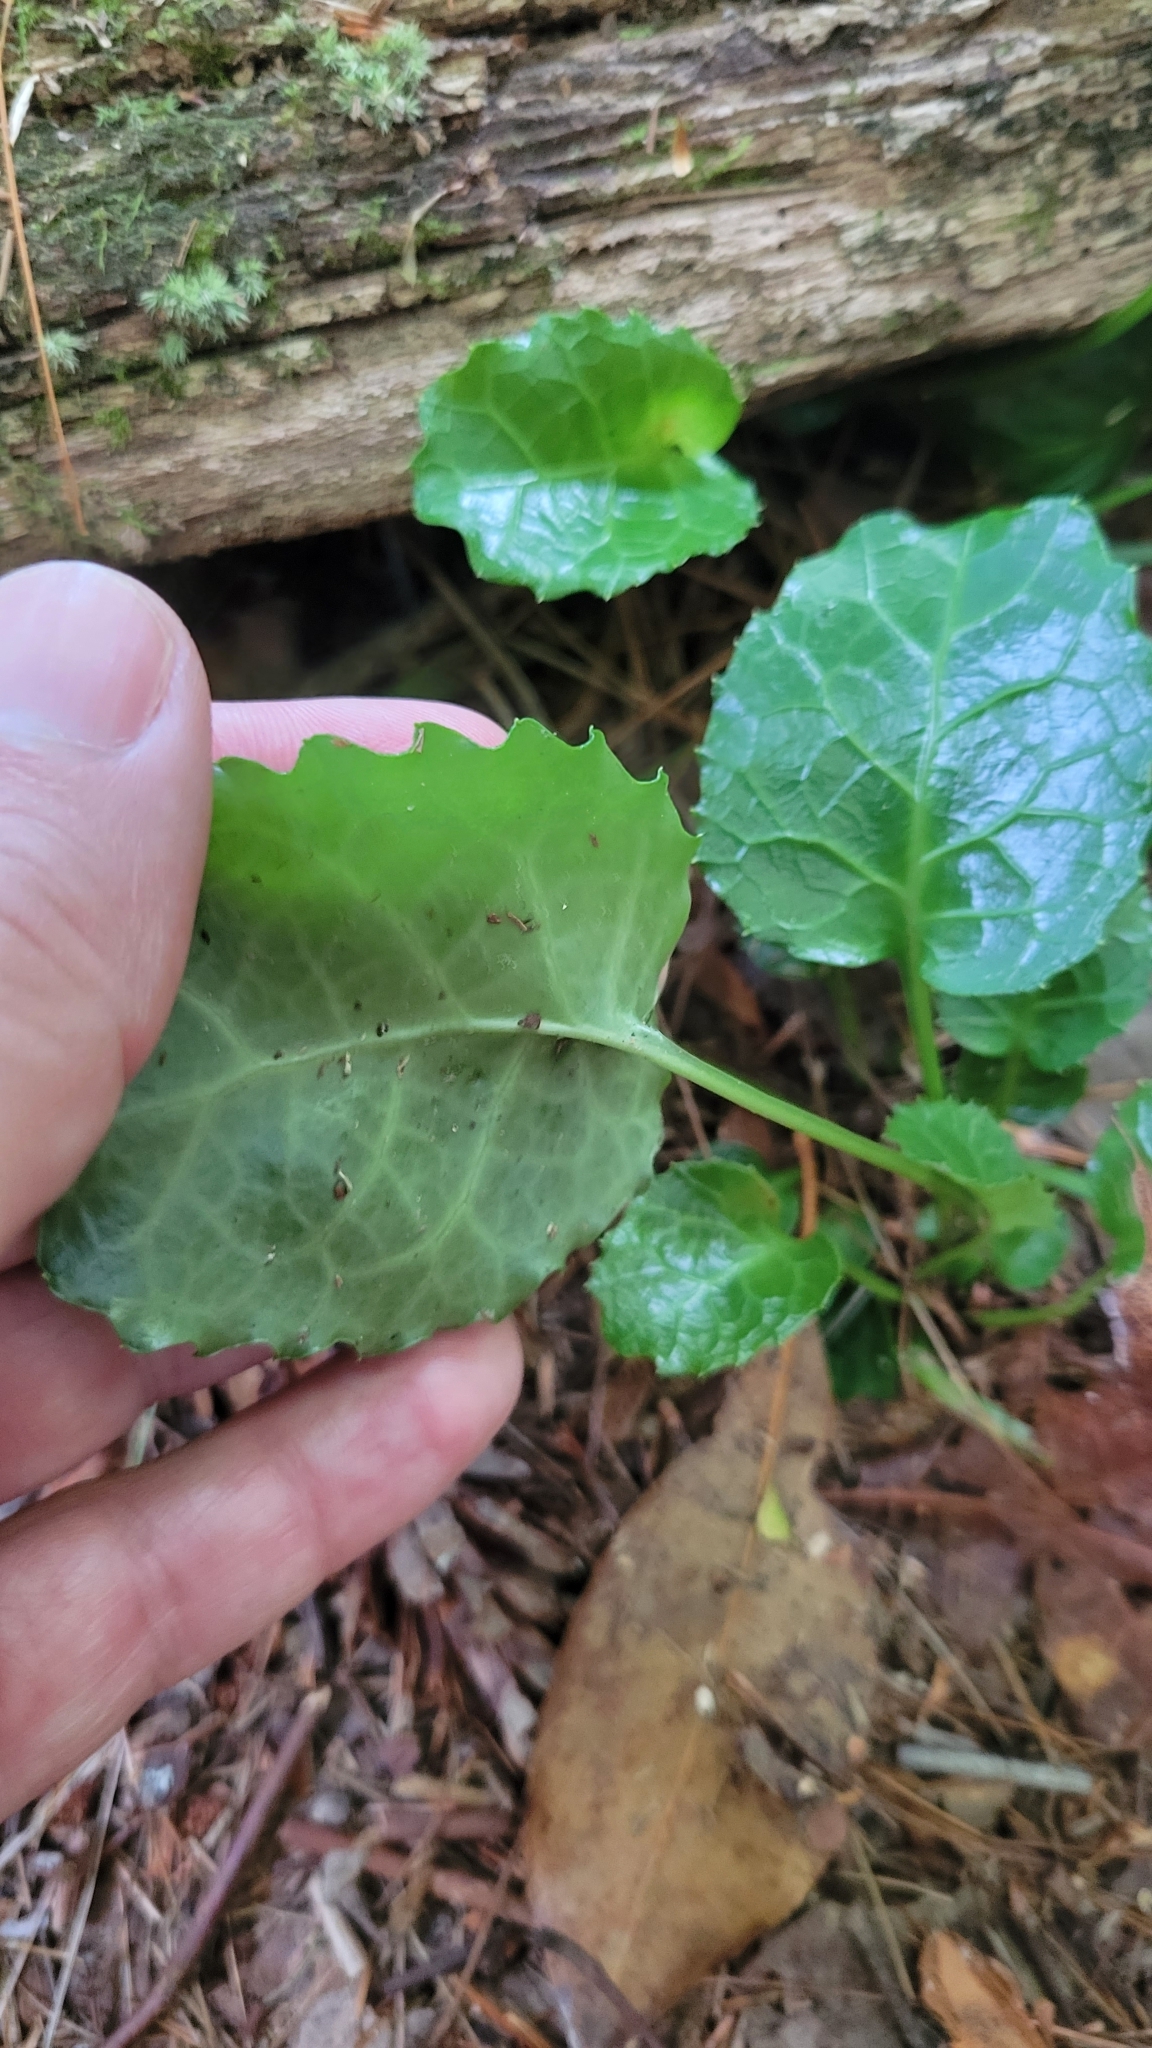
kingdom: Plantae
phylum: Tracheophyta
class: Magnoliopsida
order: Ericales
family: Diapensiaceae
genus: Shortia
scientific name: Shortia galacifolia
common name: Shortia
